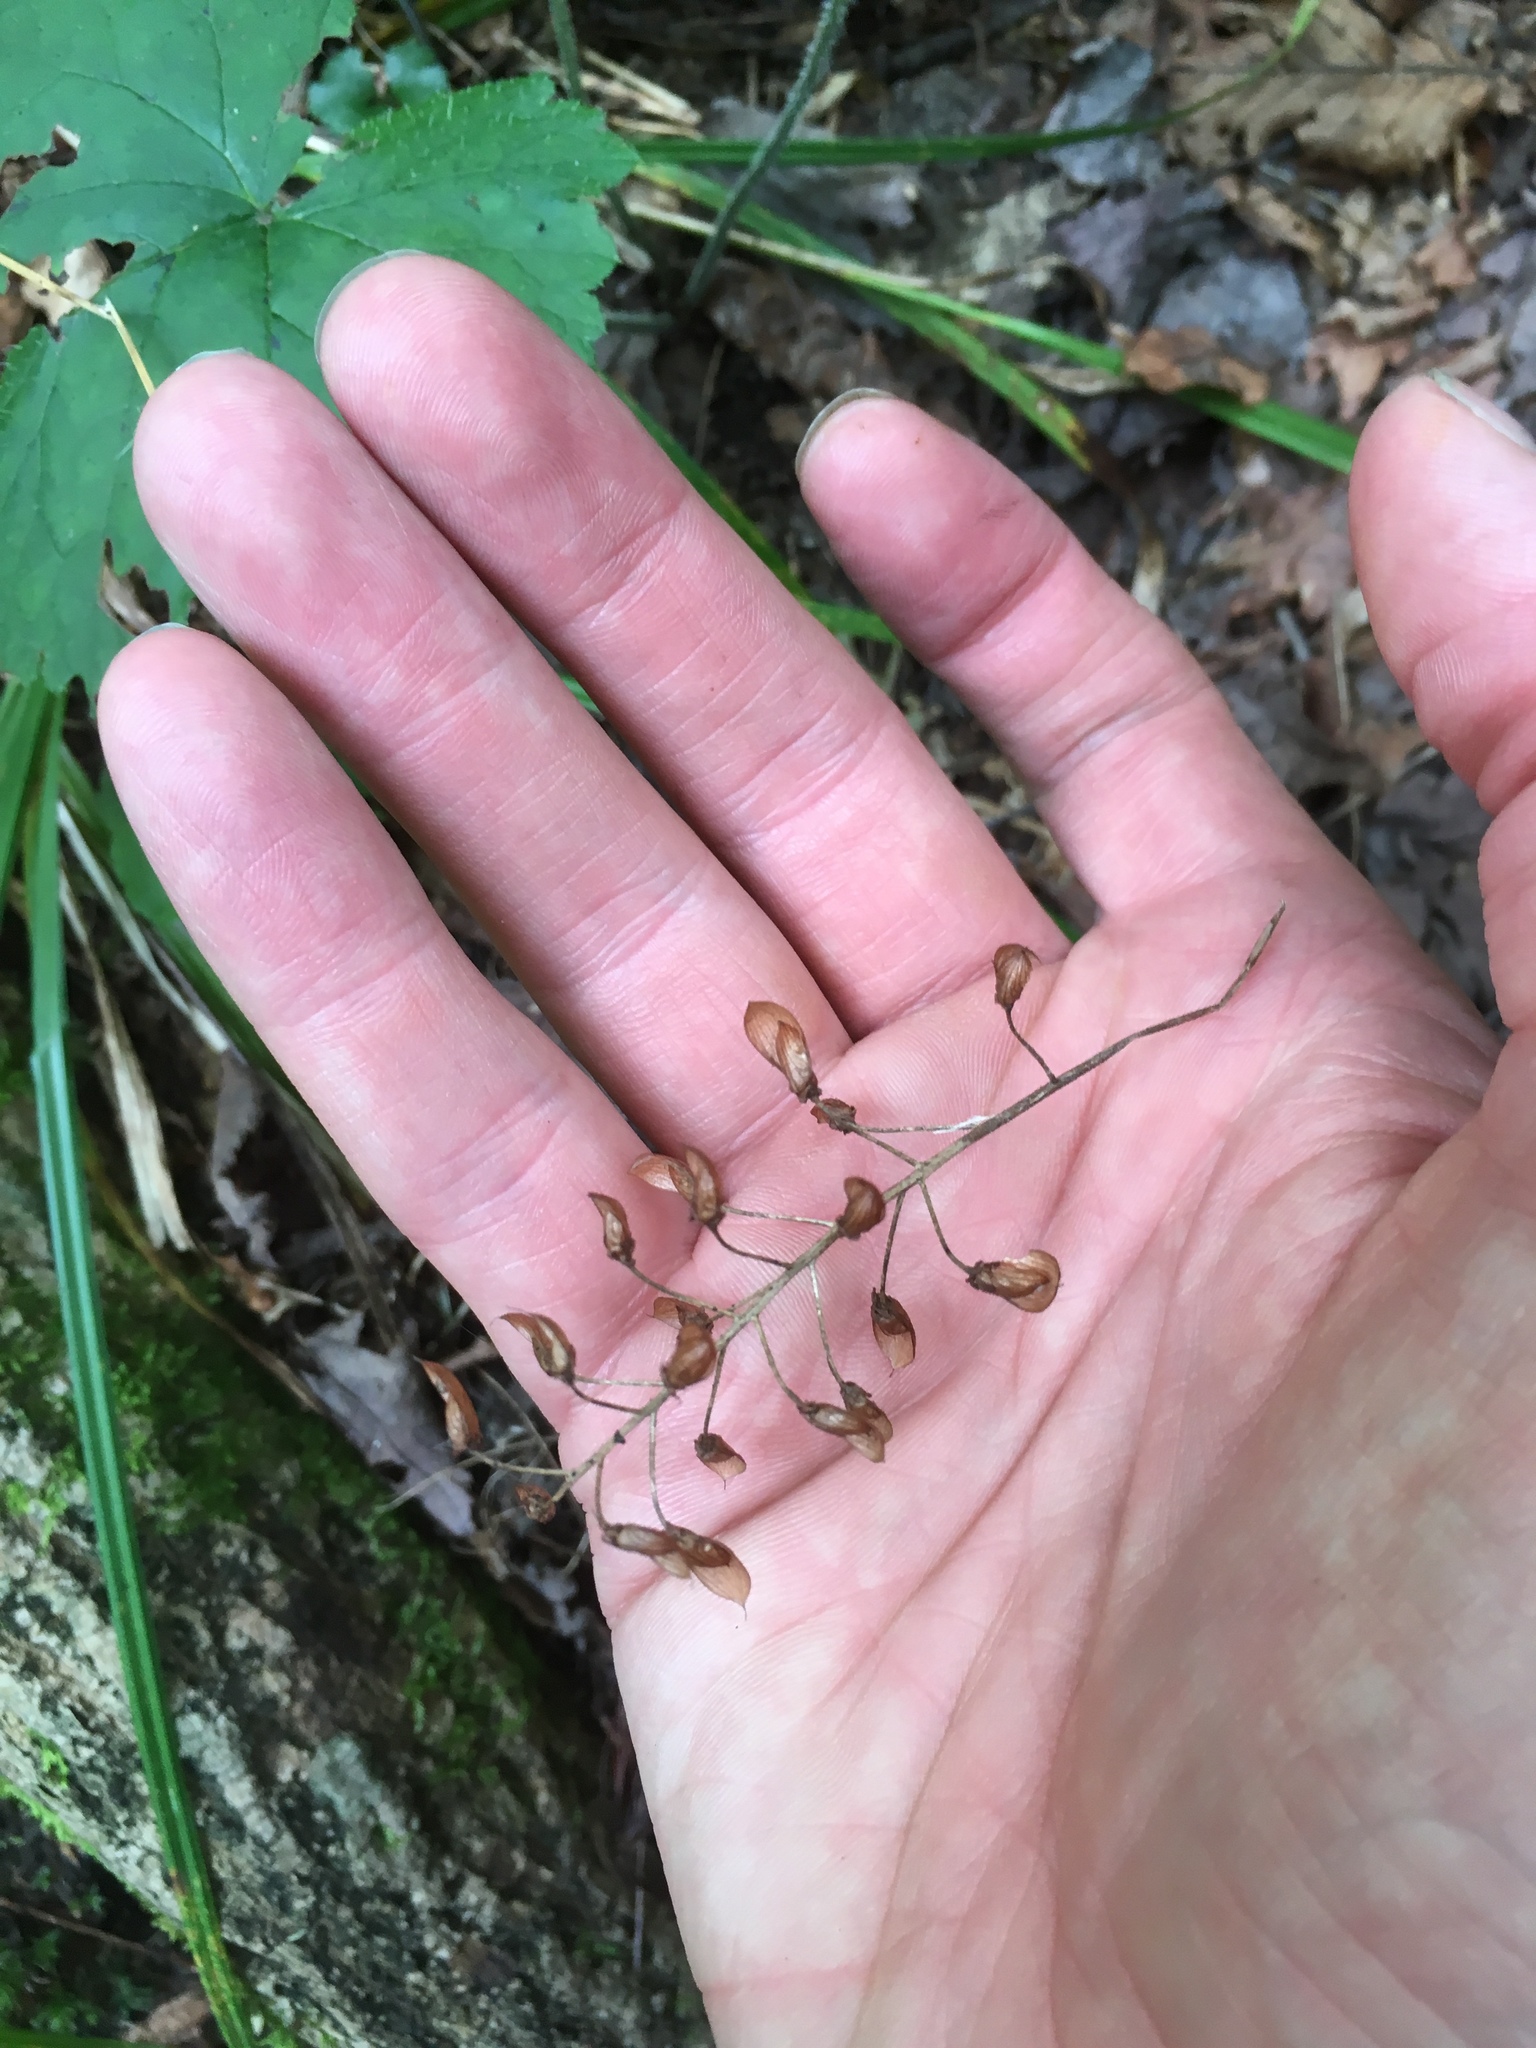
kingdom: Plantae
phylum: Tracheophyta
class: Magnoliopsida
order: Saxifragales
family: Saxifragaceae
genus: Tiarella
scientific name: Tiarella stolonifera
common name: Stoloniferous foamflower
